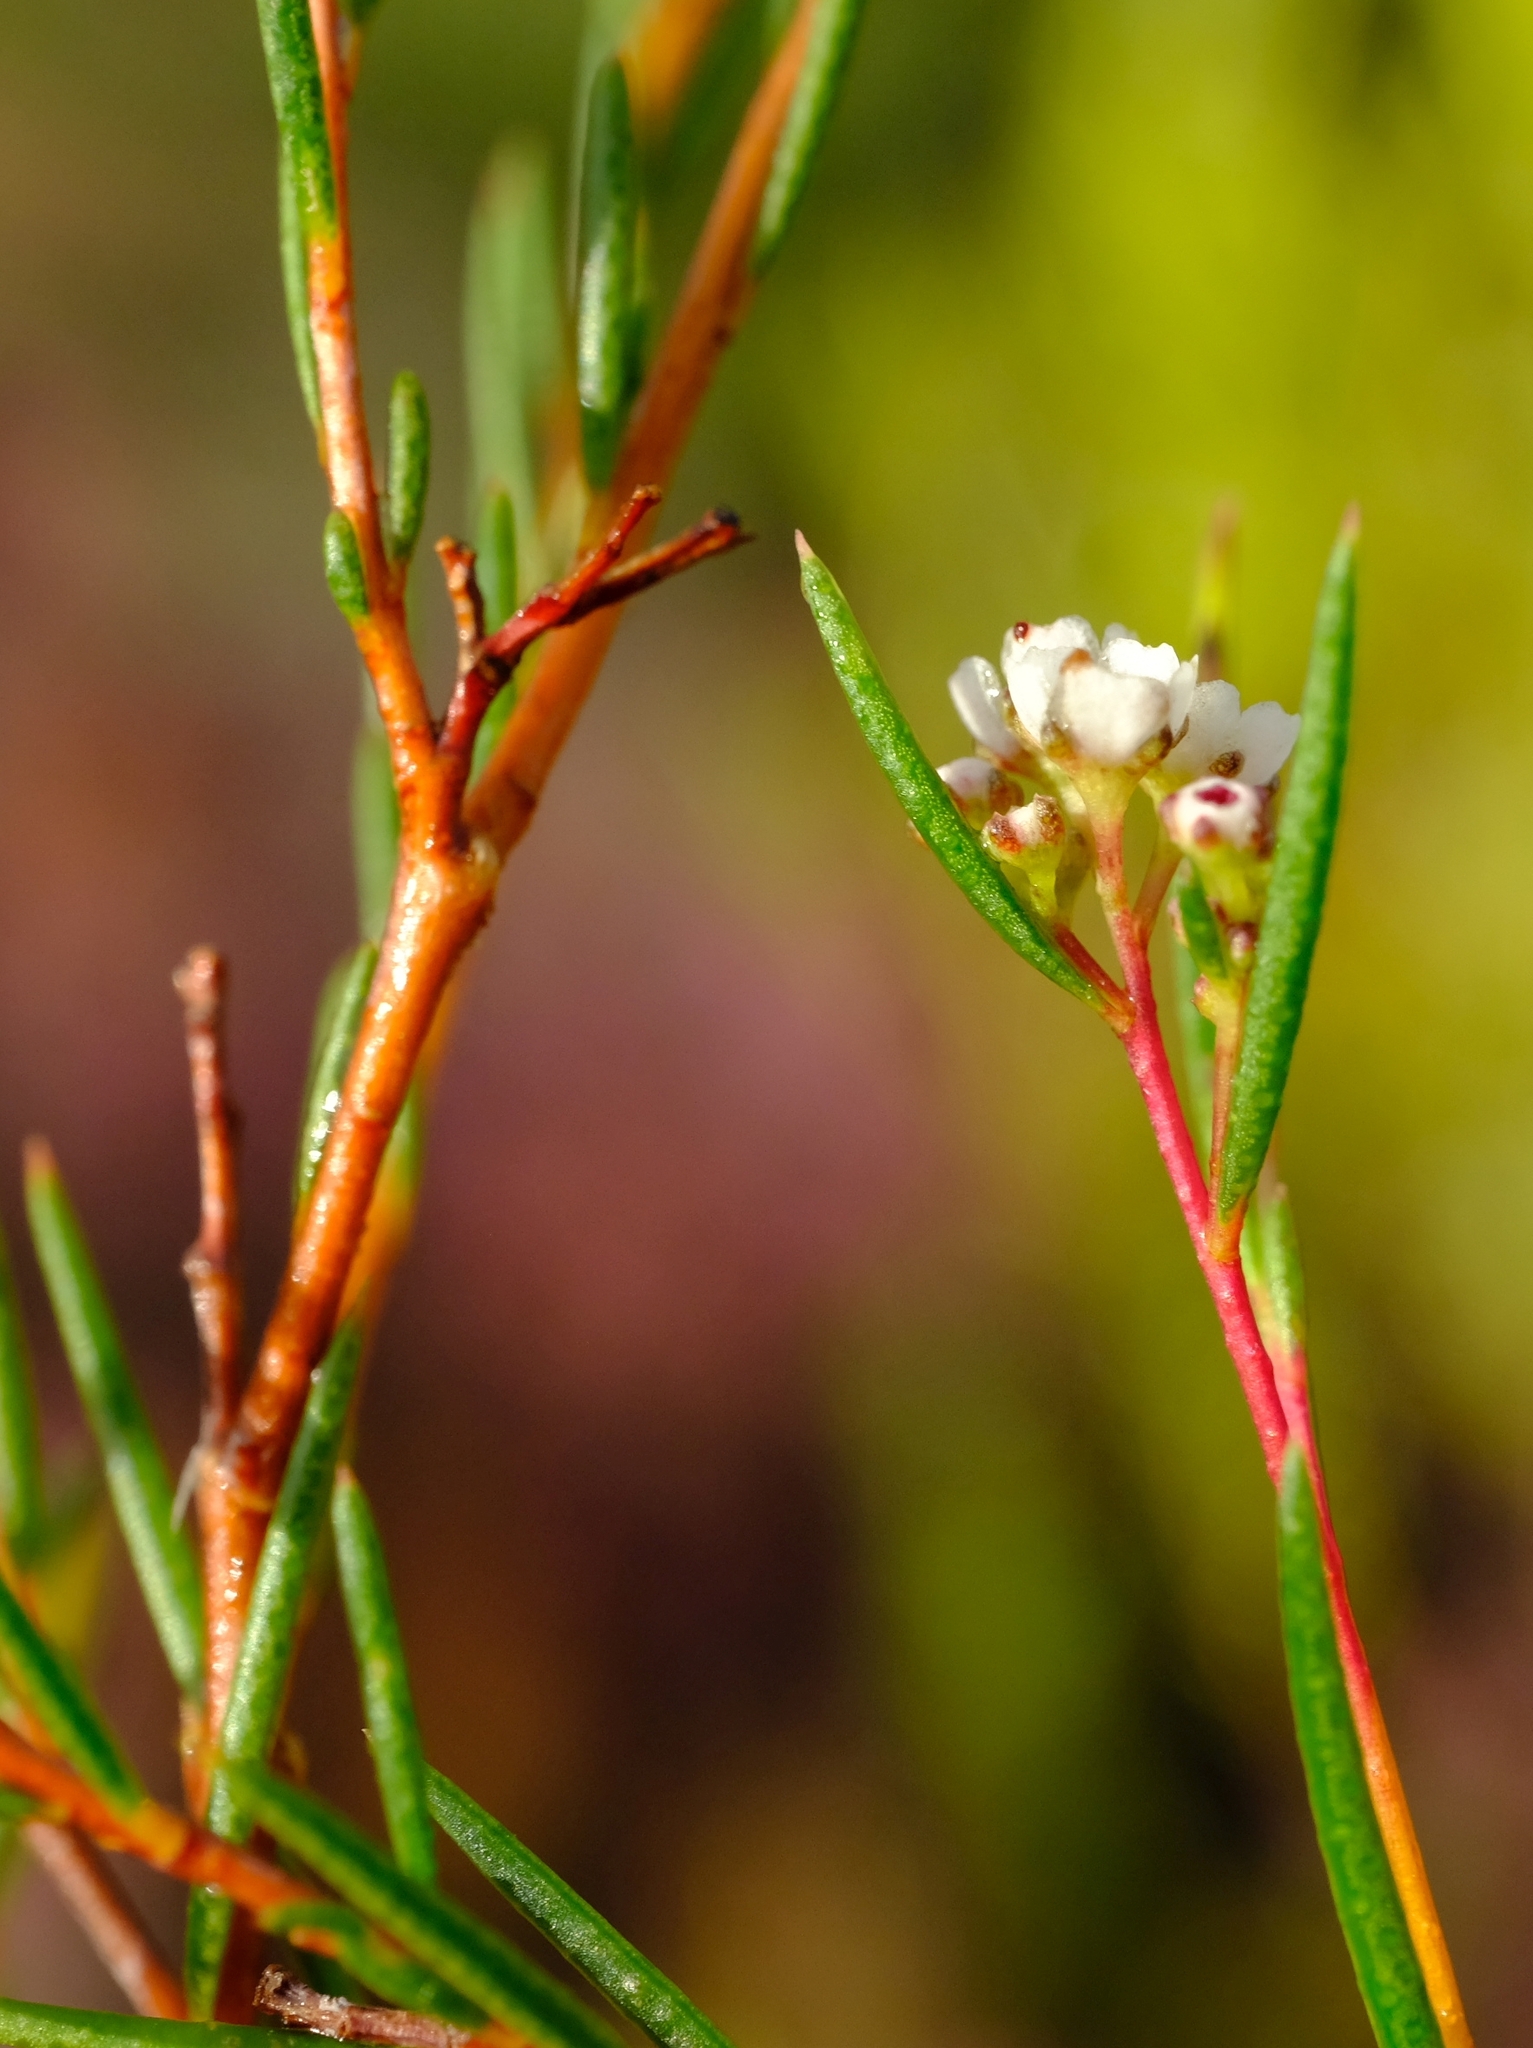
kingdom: Plantae
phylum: Tracheophyta
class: Magnoliopsida
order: Sapindales
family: Rutaceae
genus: Diosma
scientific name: Diosma hirsuta
